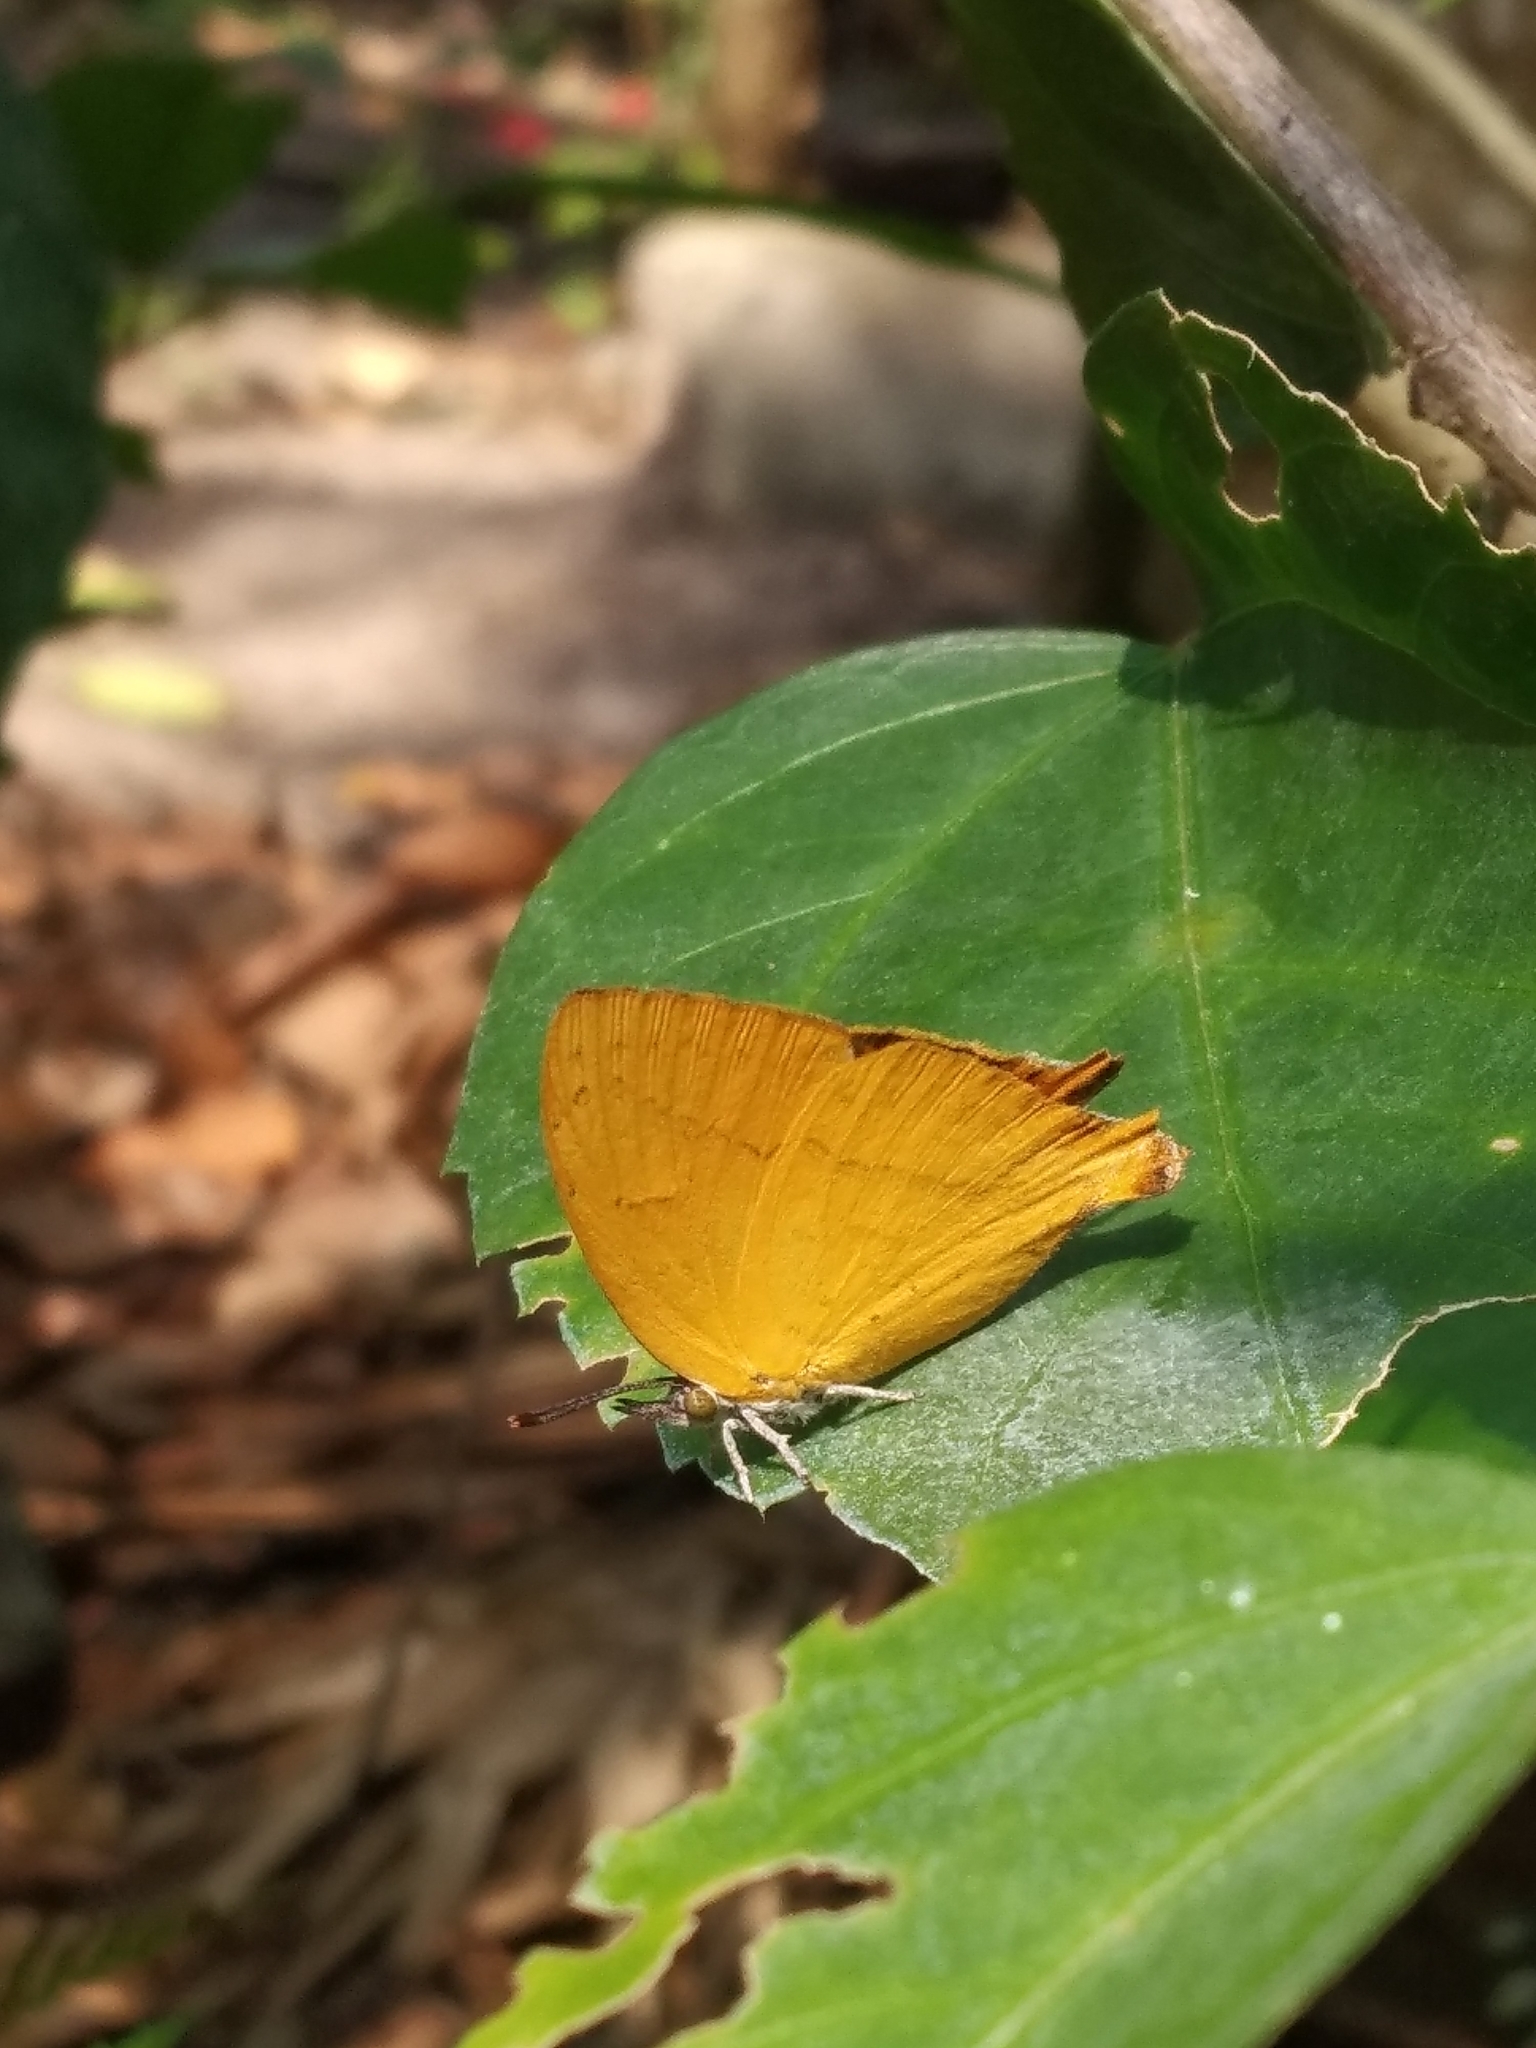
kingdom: Animalia
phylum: Arthropoda
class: Insecta
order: Lepidoptera
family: Lycaenidae
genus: Loxura
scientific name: Loxura atymnus
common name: Common yamfly
